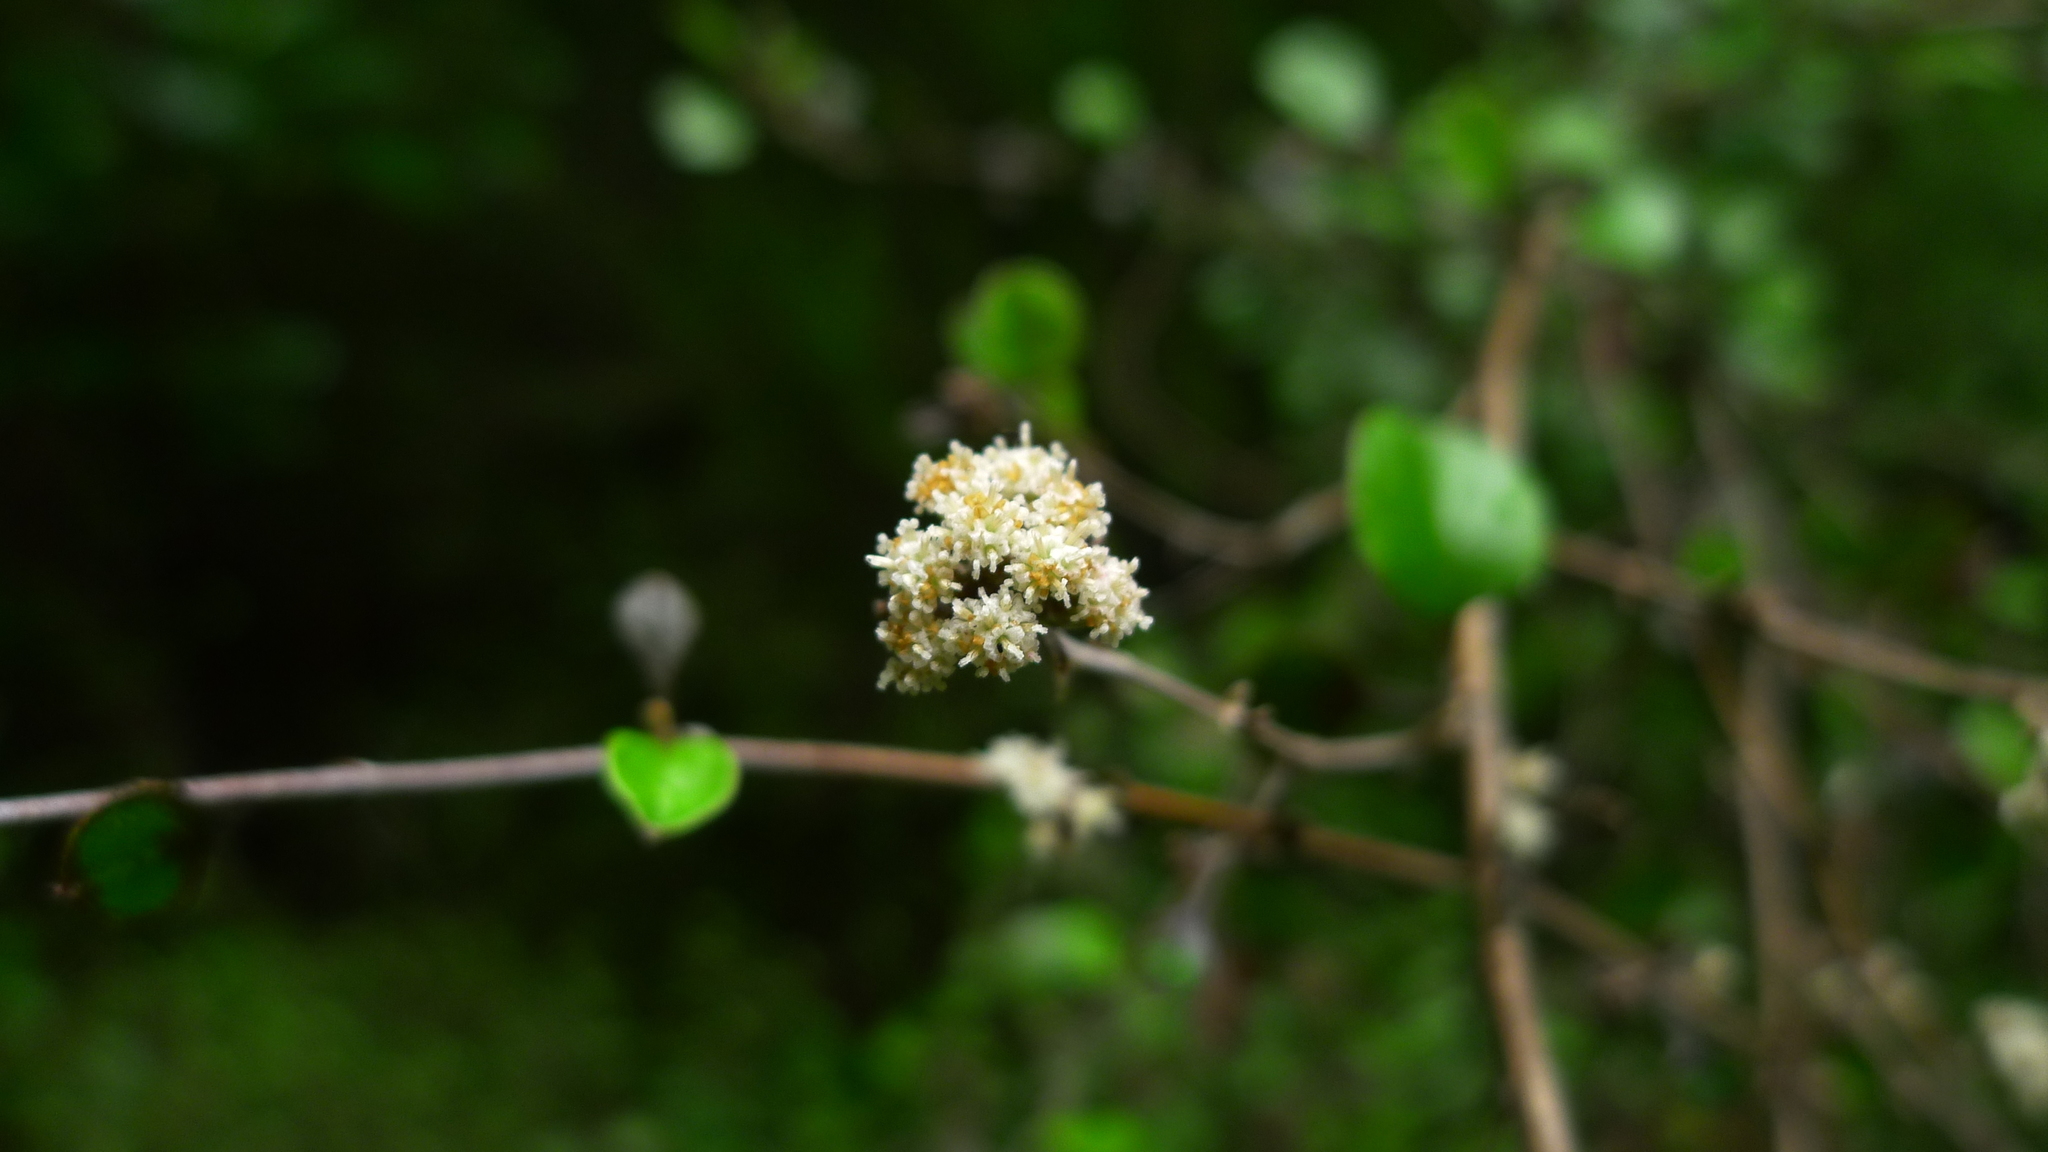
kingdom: Plantae
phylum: Tracheophyta
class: Magnoliopsida
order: Asterales
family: Asteraceae
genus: Ozothamnus
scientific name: Ozothamnus glomeratus
